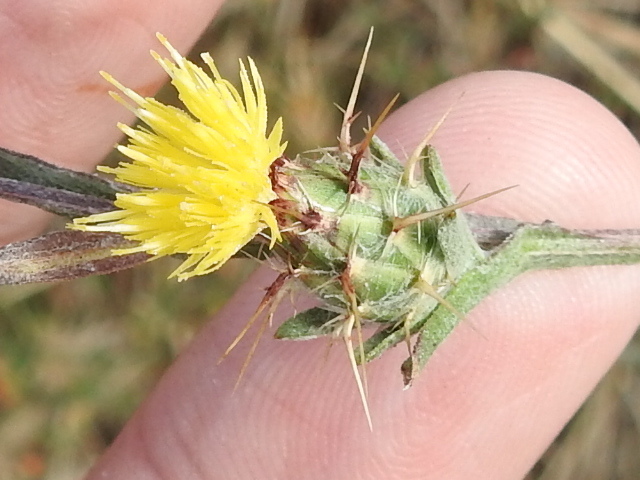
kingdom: Plantae
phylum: Tracheophyta
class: Magnoliopsida
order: Asterales
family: Asteraceae
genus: Centaurea
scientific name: Centaurea melitensis
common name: Maltese star-thistle
